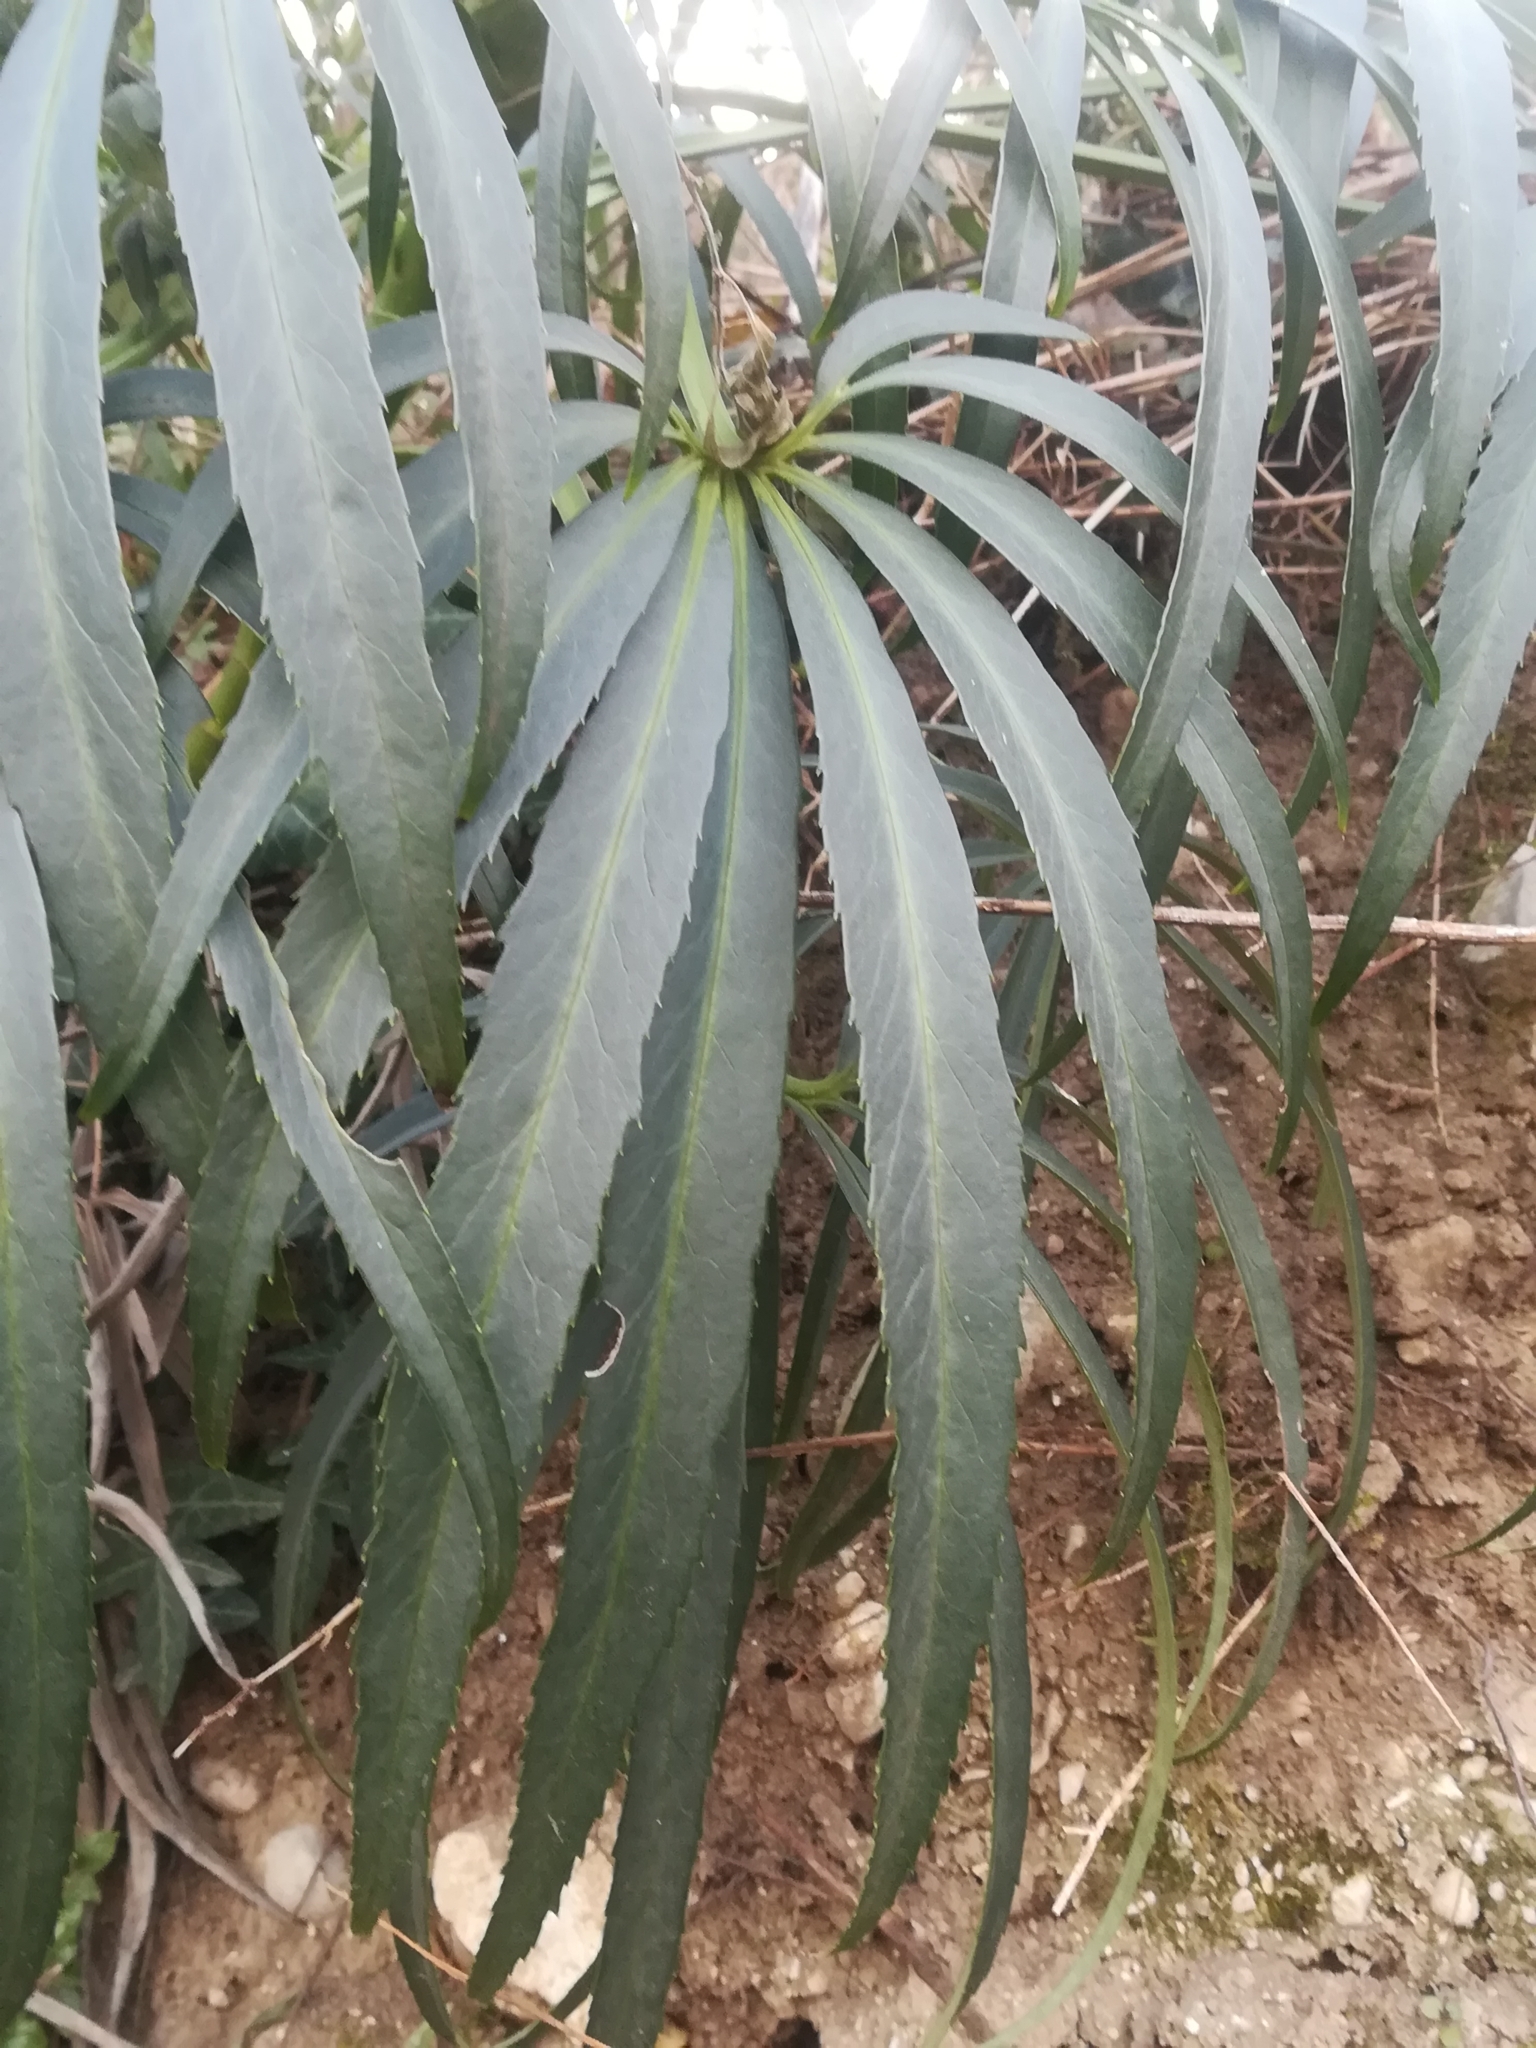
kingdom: Plantae
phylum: Tracheophyta
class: Magnoliopsida
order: Ranunculales
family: Ranunculaceae
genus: Helleborus
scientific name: Helleborus foetidus
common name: Stinking hellebore
